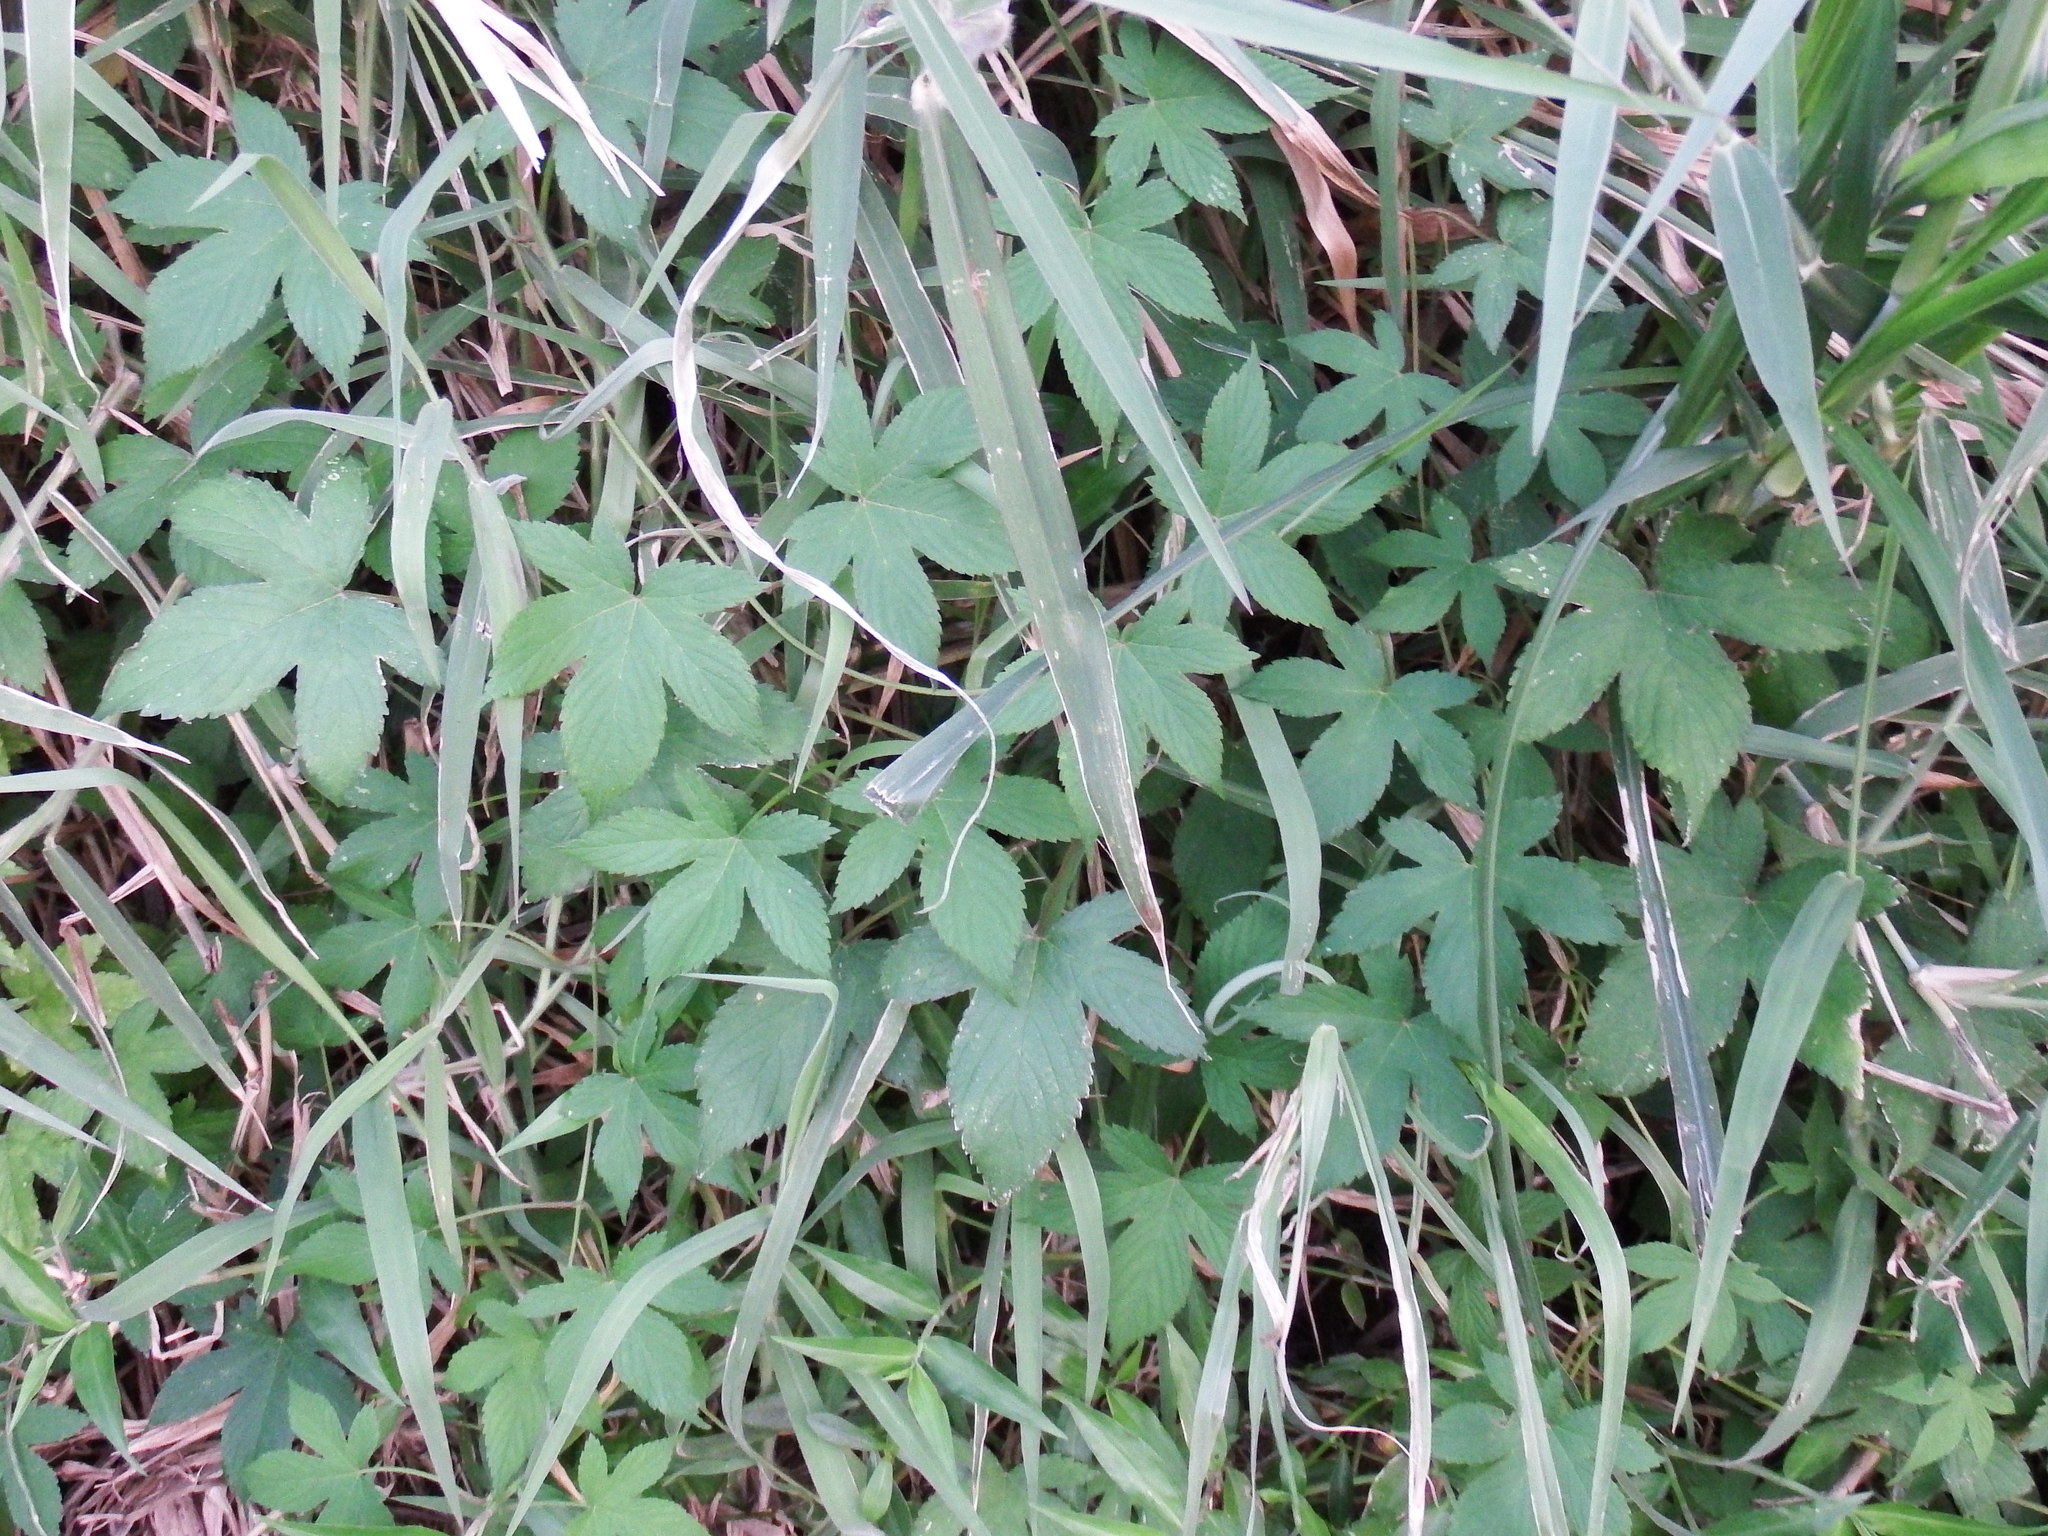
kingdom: Plantae
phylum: Tracheophyta
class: Magnoliopsida
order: Rosales
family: Cannabaceae
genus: Humulus
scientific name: Humulus scandens
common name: Japanese hop
